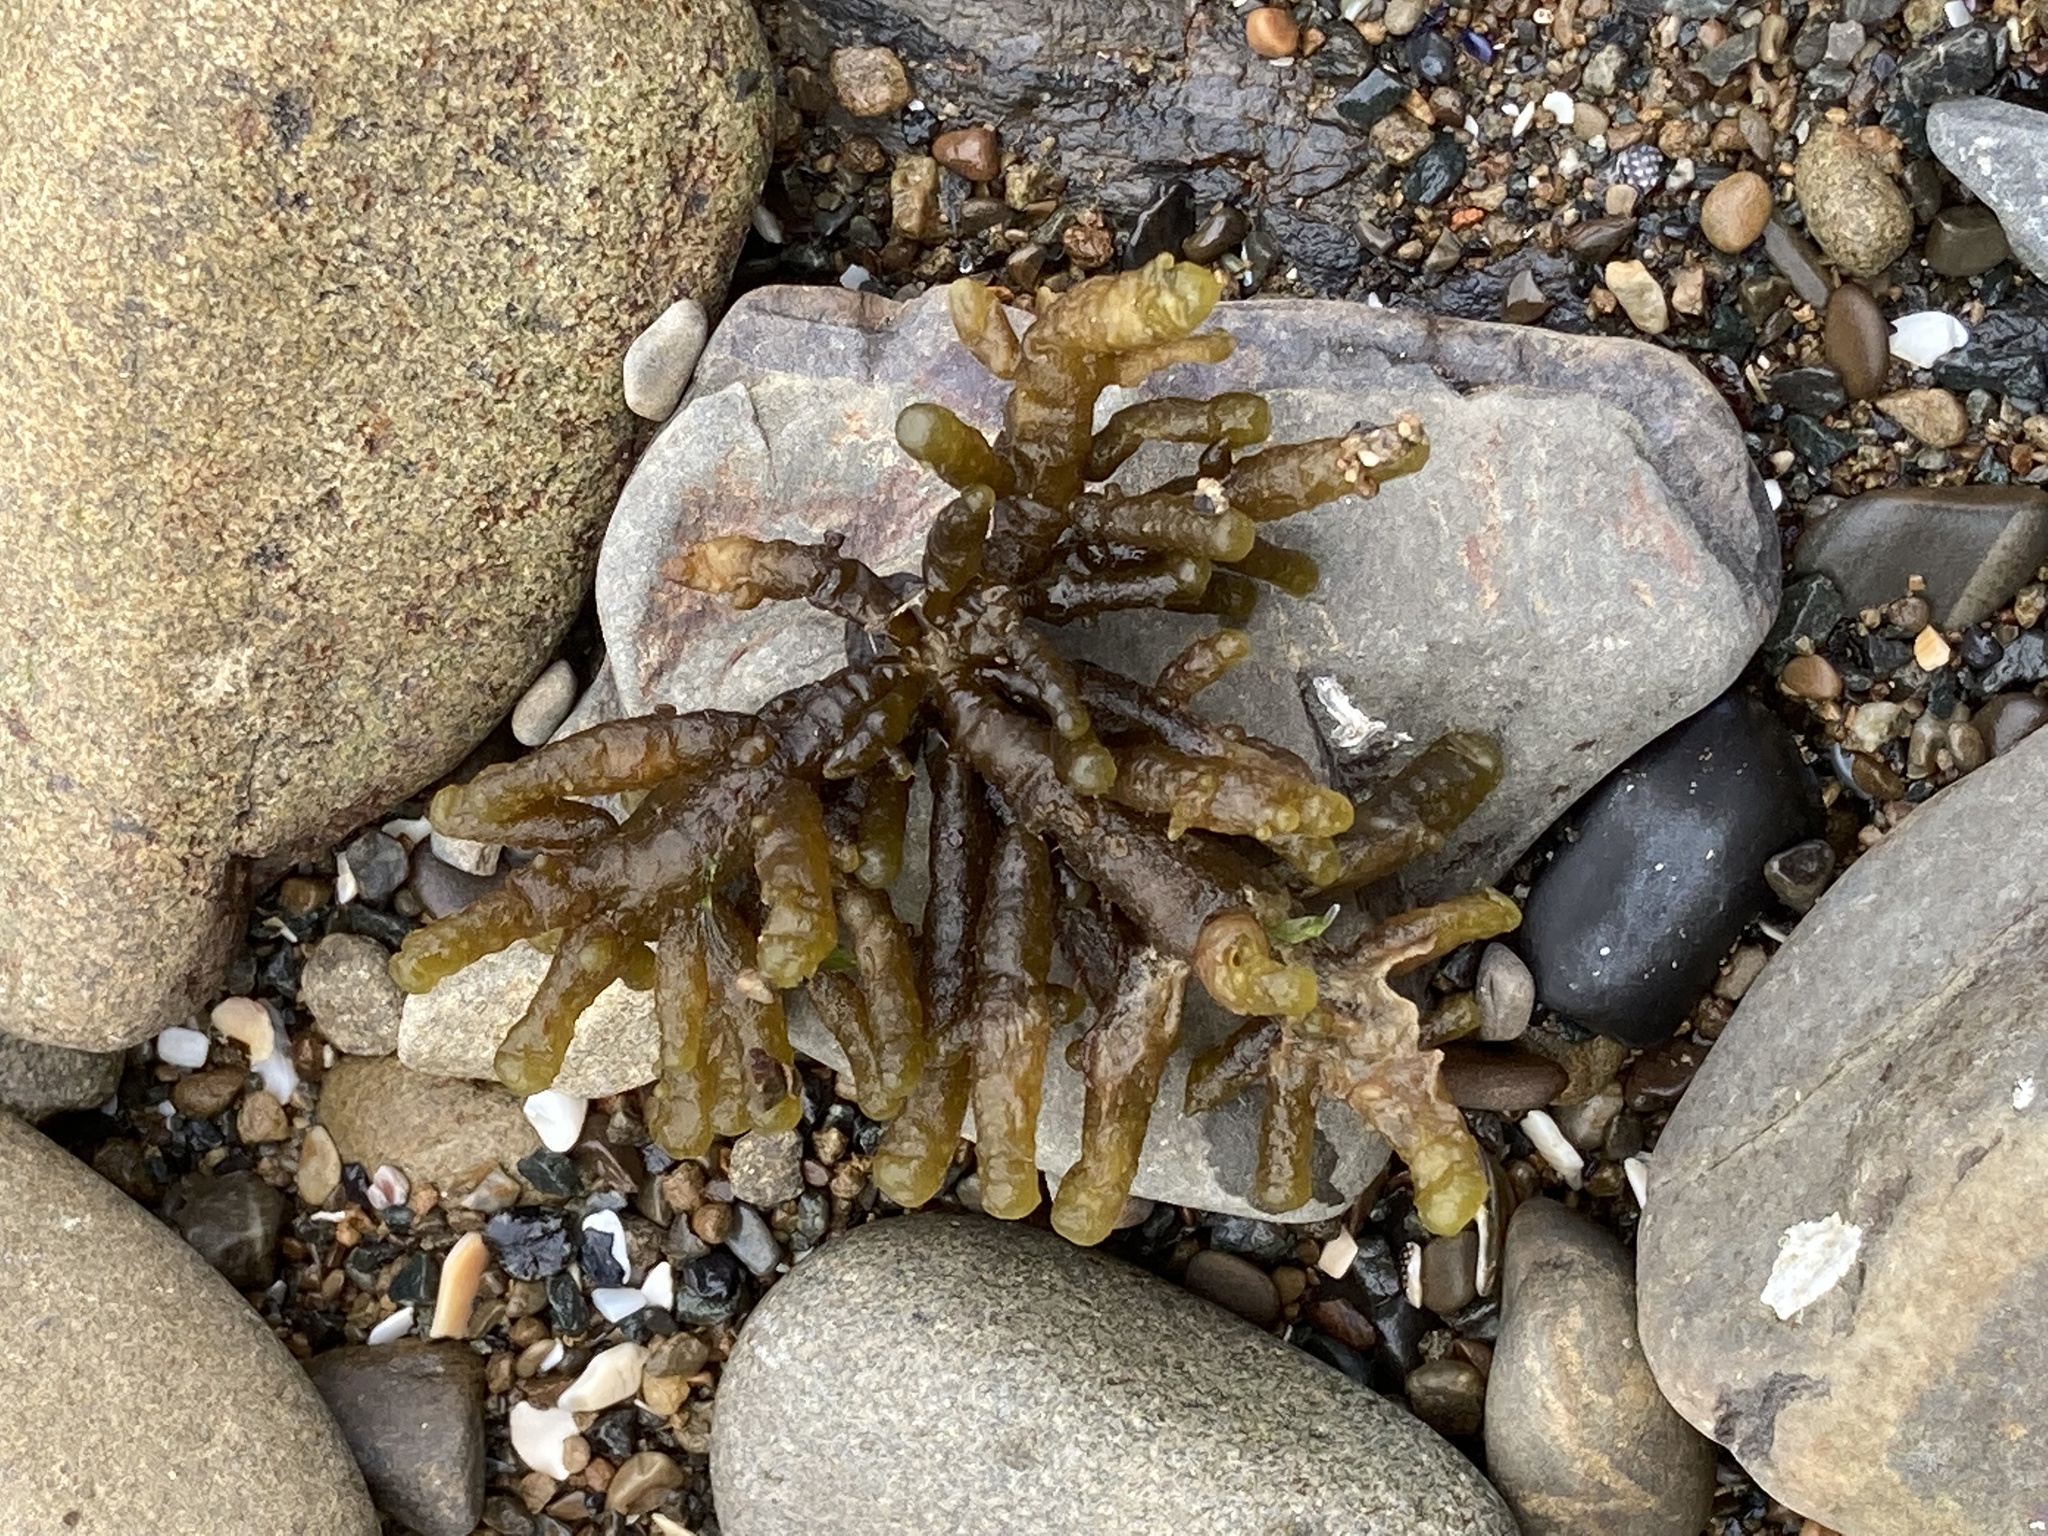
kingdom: Chromista
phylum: Ochrophyta
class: Phaeophyceae
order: Scytothamnales
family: Splachnidiaceae
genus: Splachnidium
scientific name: Splachnidium rugosum
